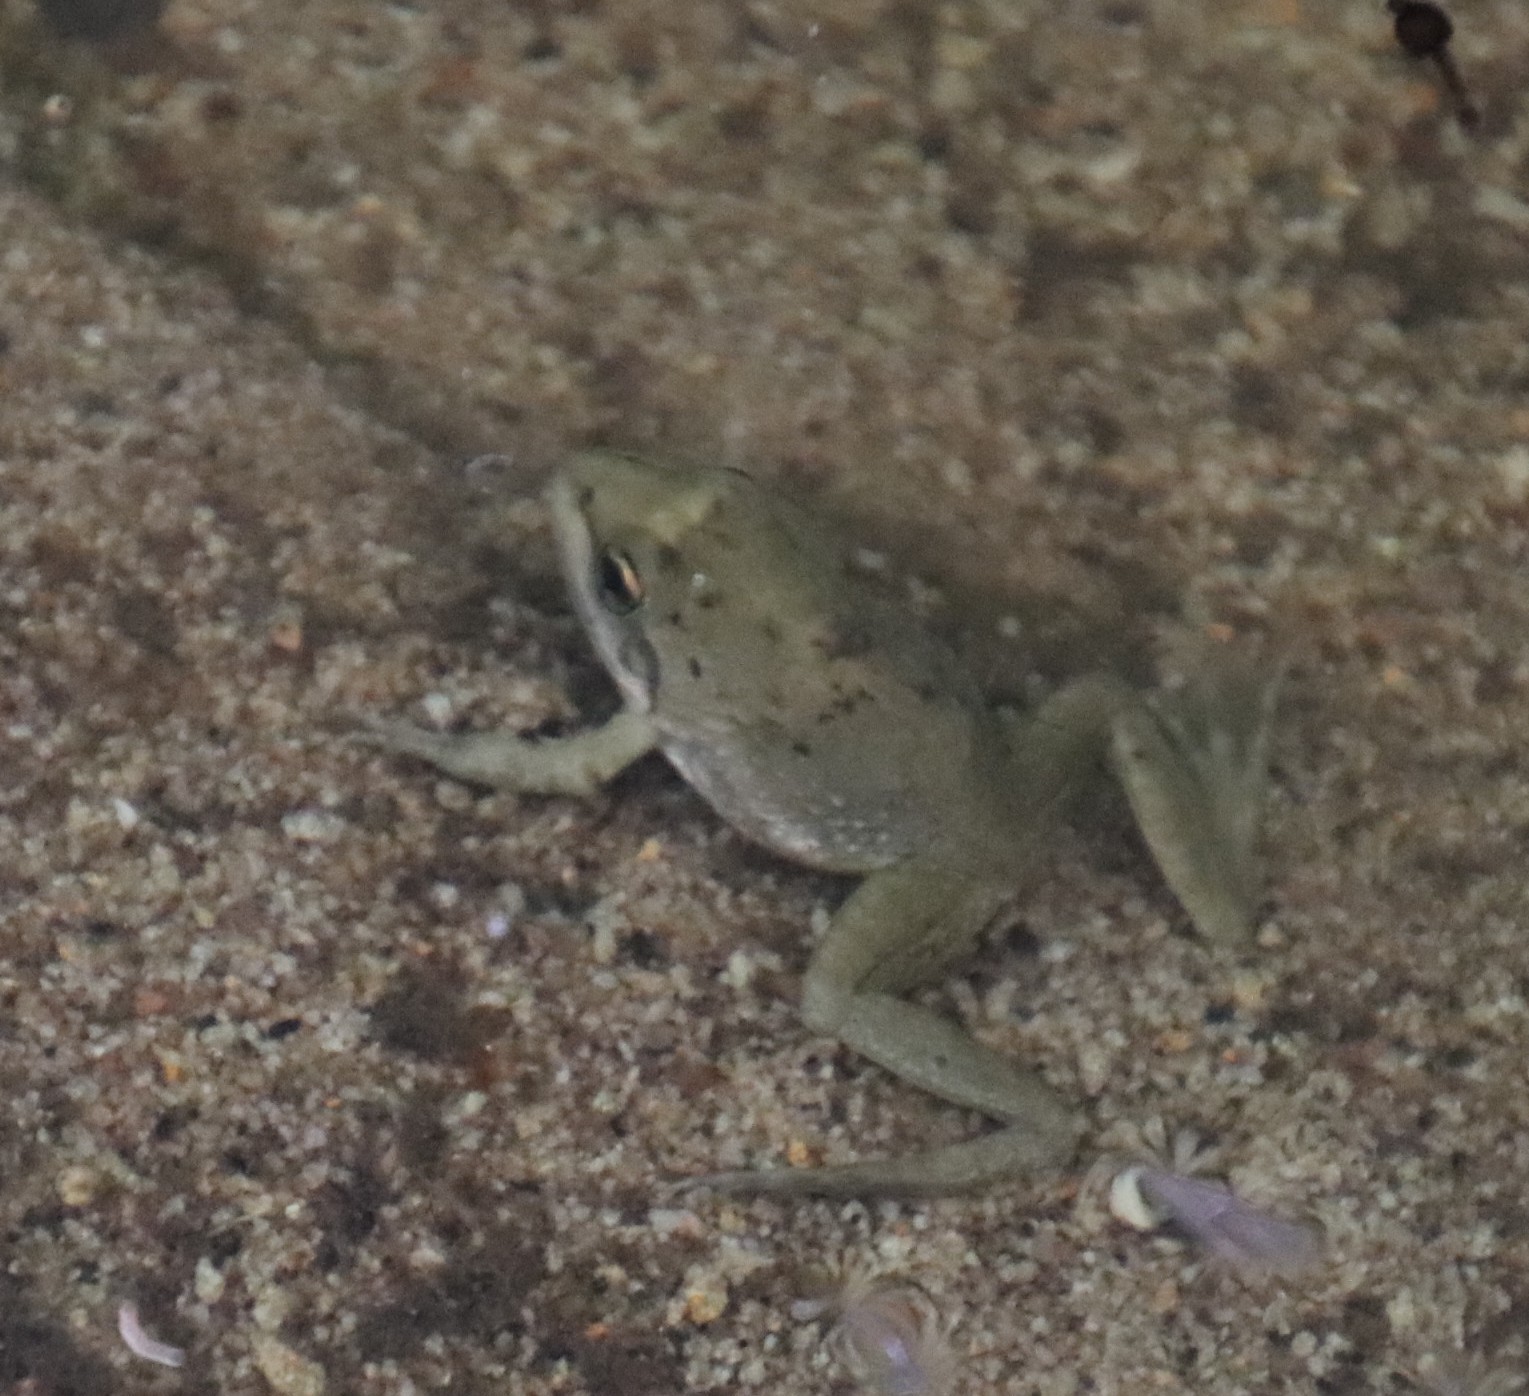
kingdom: Animalia
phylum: Chordata
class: Amphibia
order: Anura
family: Pyxicephalidae
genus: Amietia
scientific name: Amietia fuscigula
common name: Cape rana
